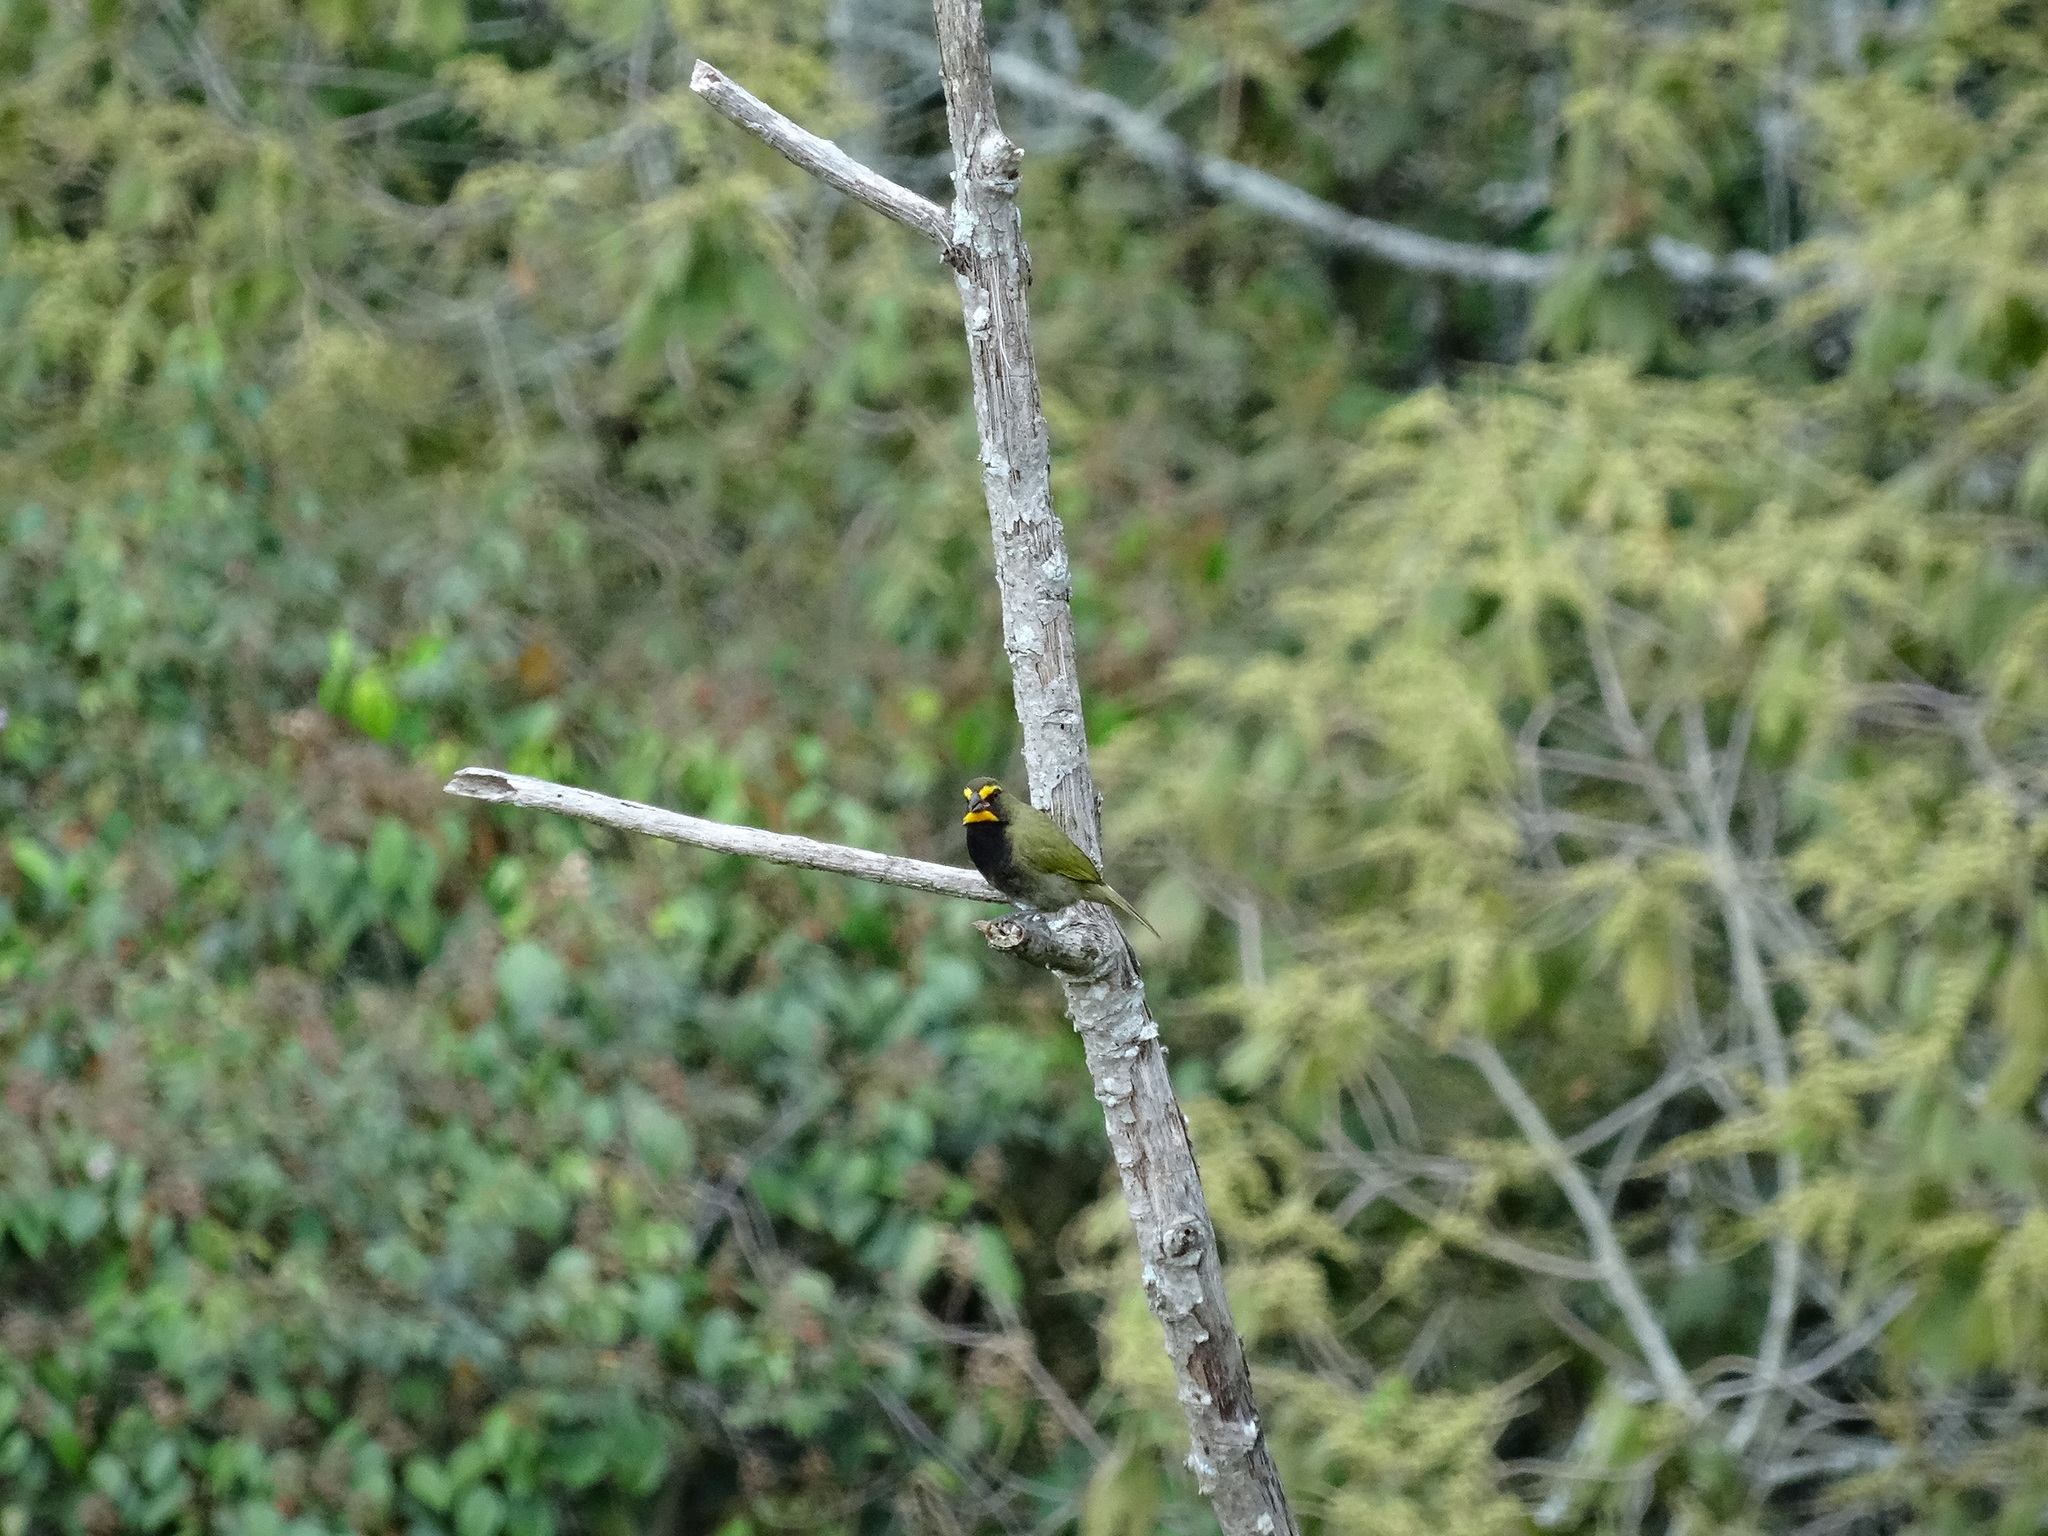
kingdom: Animalia
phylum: Chordata
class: Aves
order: Passeriformes
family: Thraupidae
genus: Tiaris
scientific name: Tiaris olivaceus
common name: Yellow-faced grassquit
